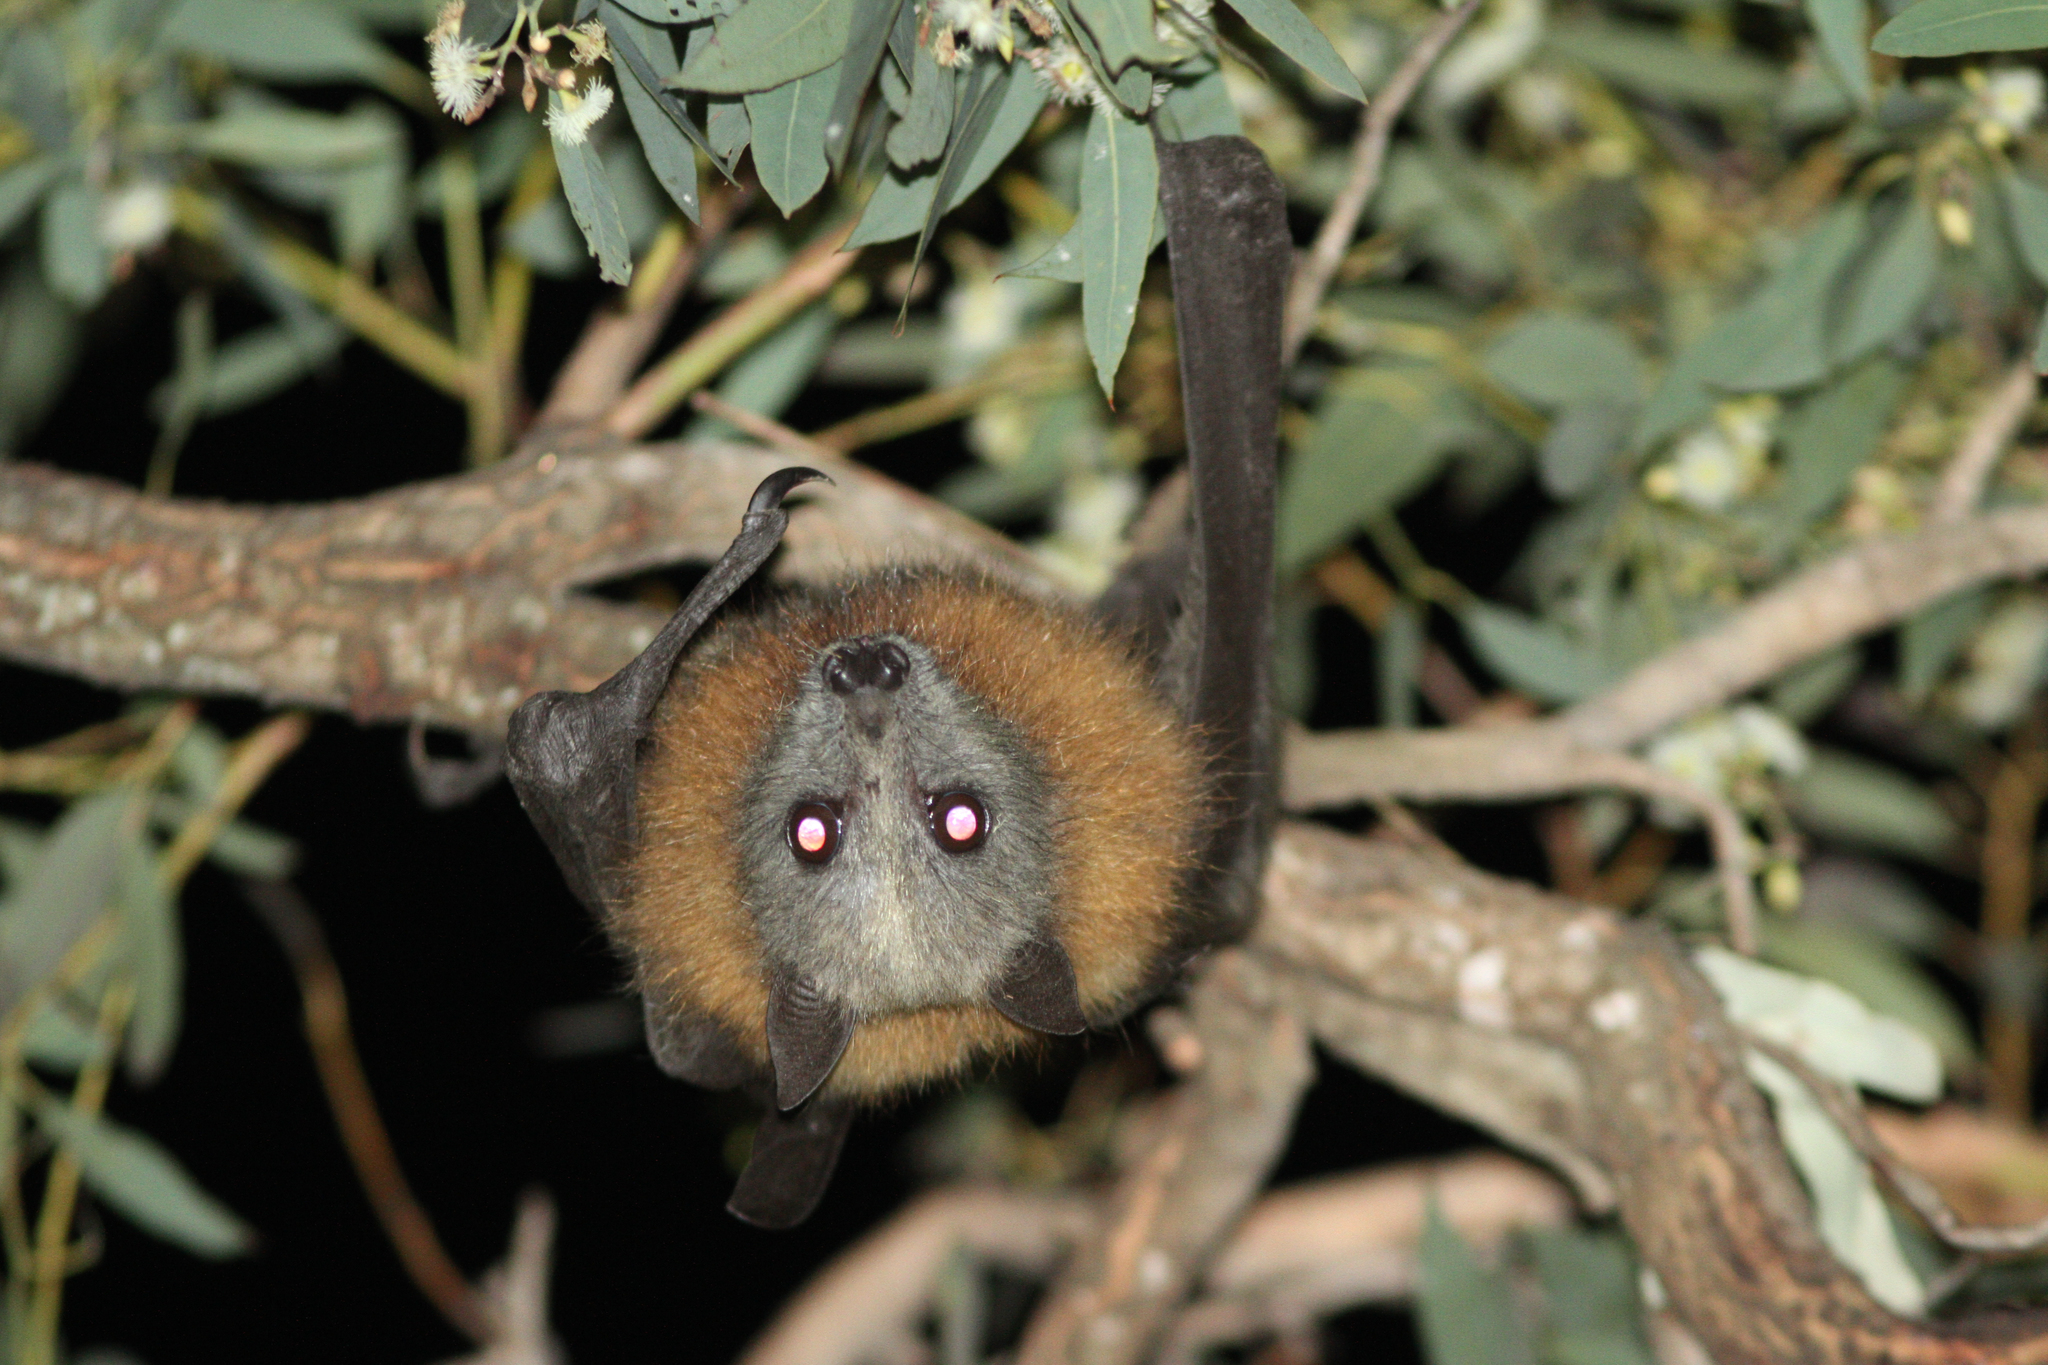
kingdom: Animalia
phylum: Chordata
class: Mammalia
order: Chiroptera
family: Pteropodidae
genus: Pteropus
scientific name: Pteropus poliocephalus
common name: Gray-headed flying fox
